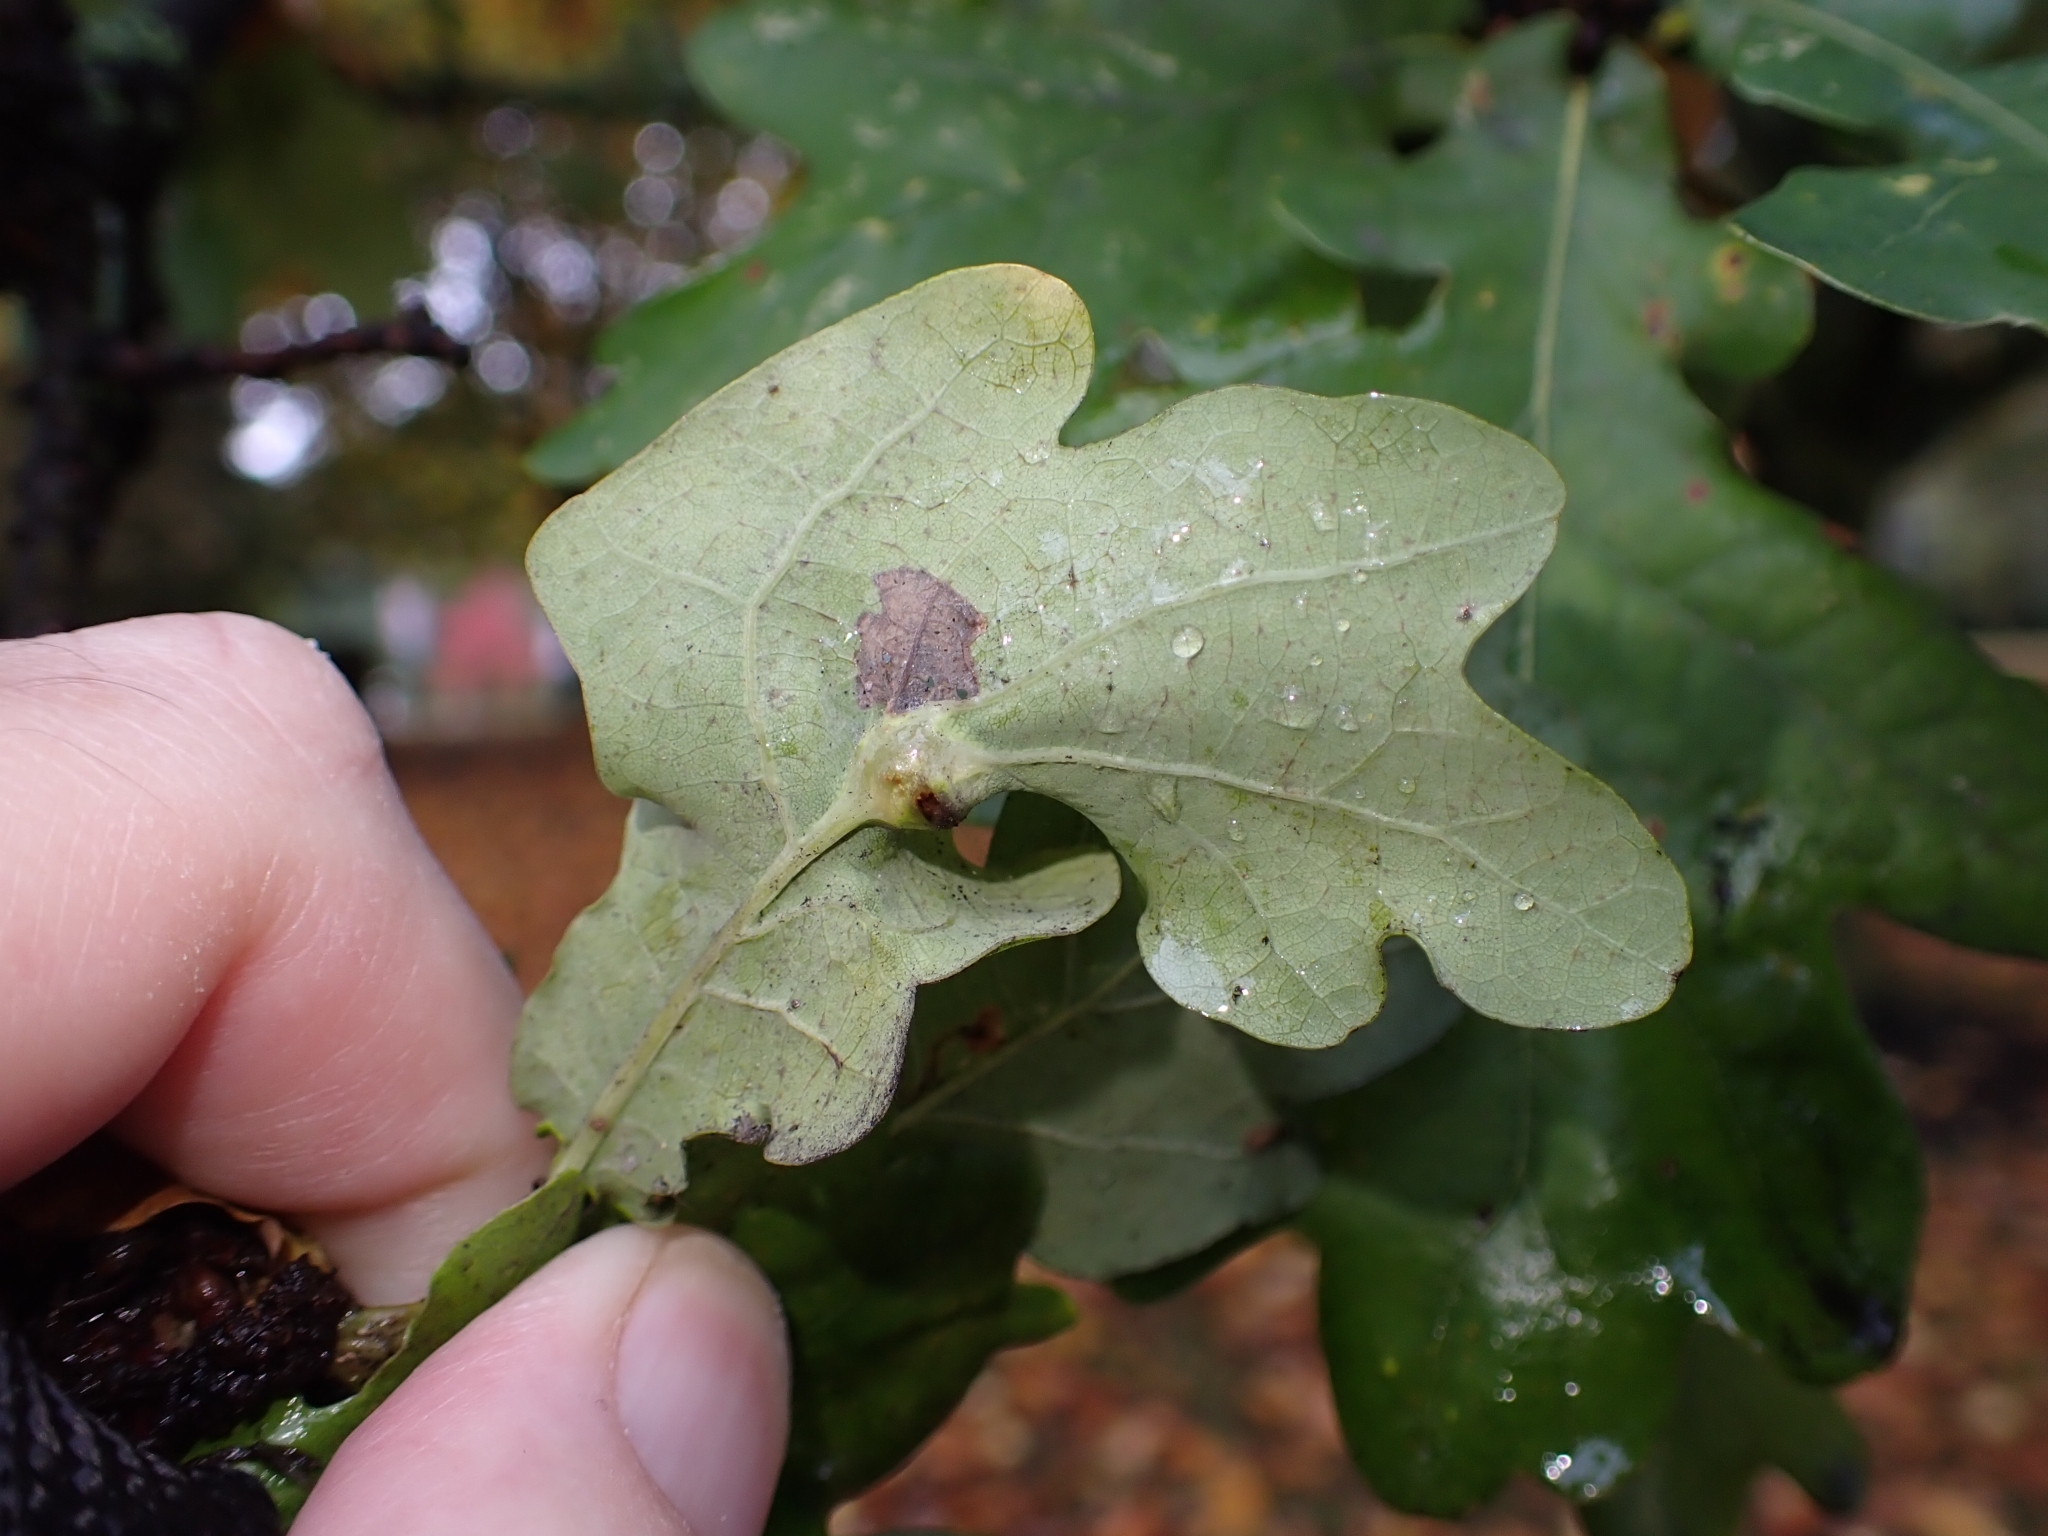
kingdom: Animalia
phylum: Arthropoda
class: Insecta
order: Hymenoptera
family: Cynipidae
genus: Andricus
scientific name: Andricus curvator
